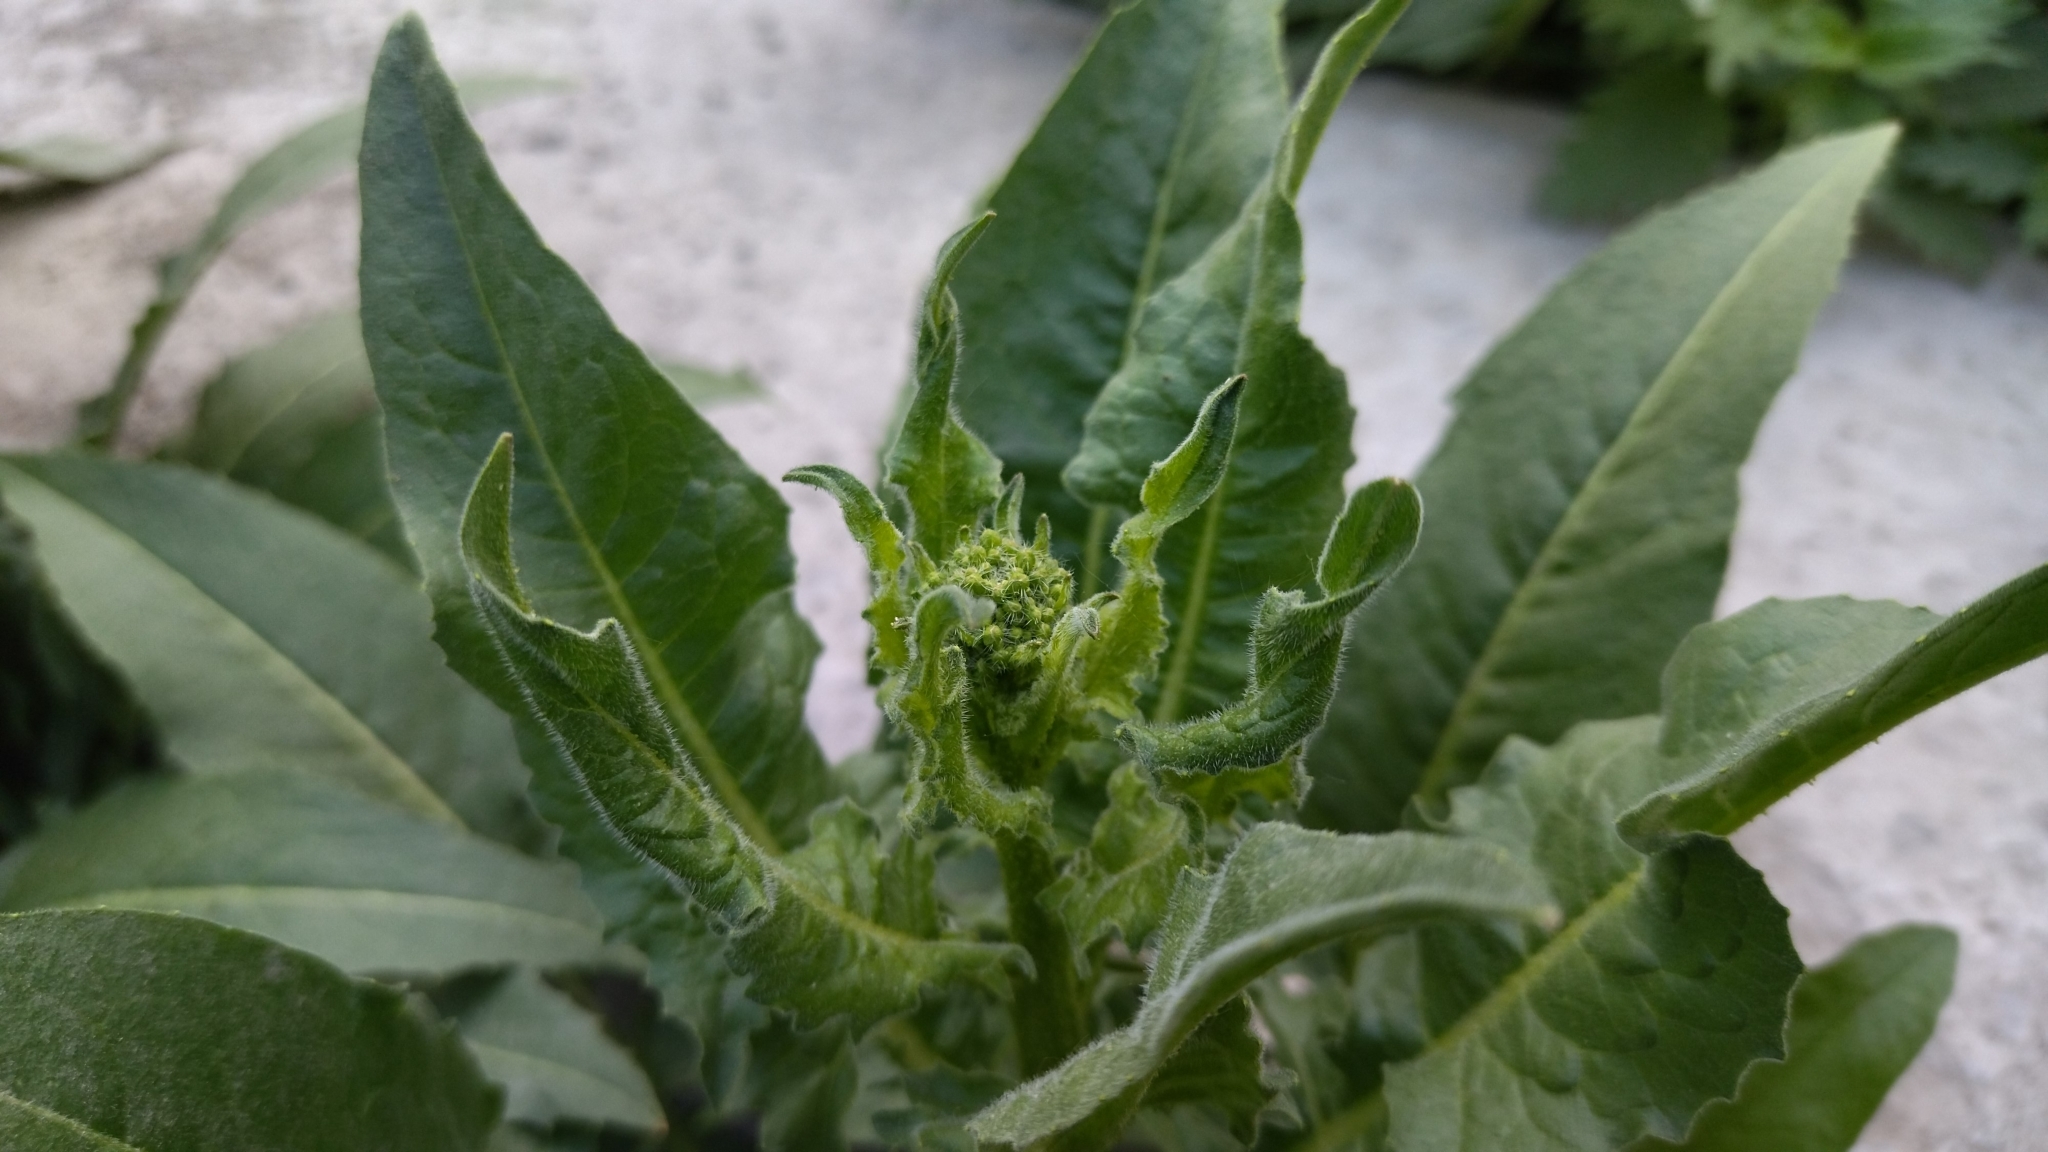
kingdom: Plantae
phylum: Tracheophyta
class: Magnoliopsida
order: Brassicales
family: Brassicaceae
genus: Bunias
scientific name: Bunias orientalis
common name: Warty-cabbage
